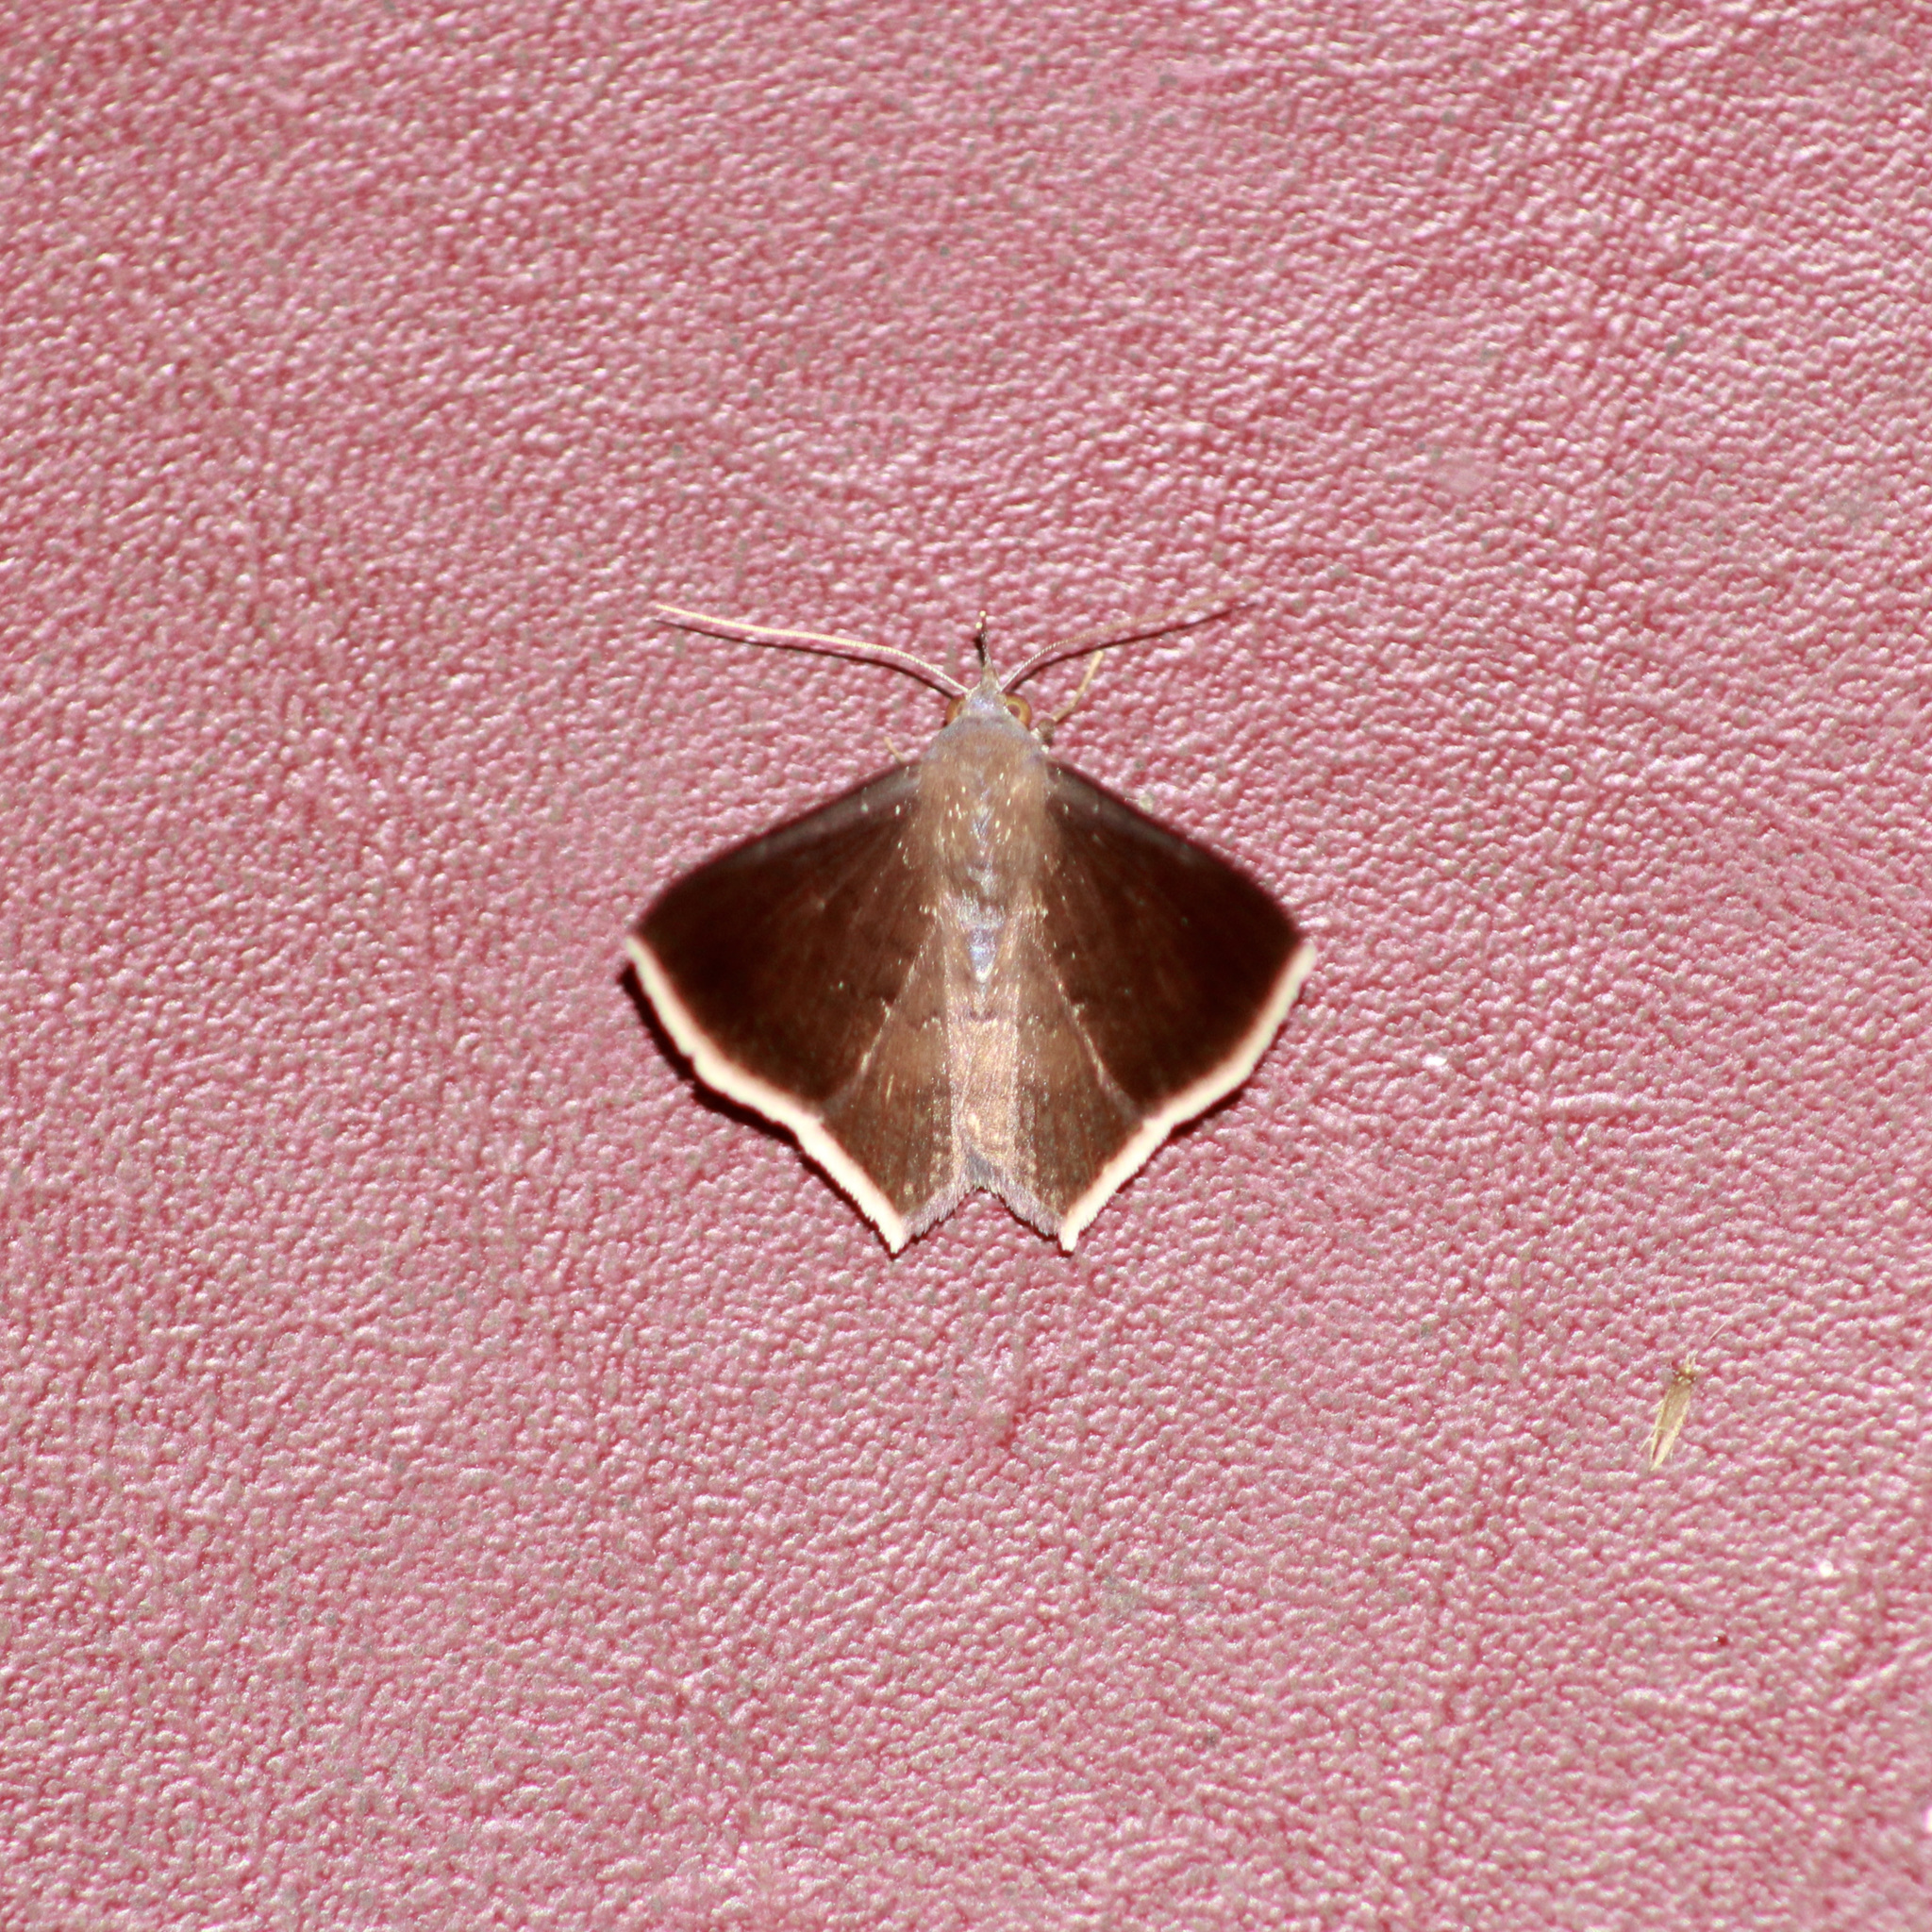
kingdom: Animalia
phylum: Arthropoda
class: Insecta
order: Lepidoptera
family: Erebidae
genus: Euclystis
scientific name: Euclystis deterrima
